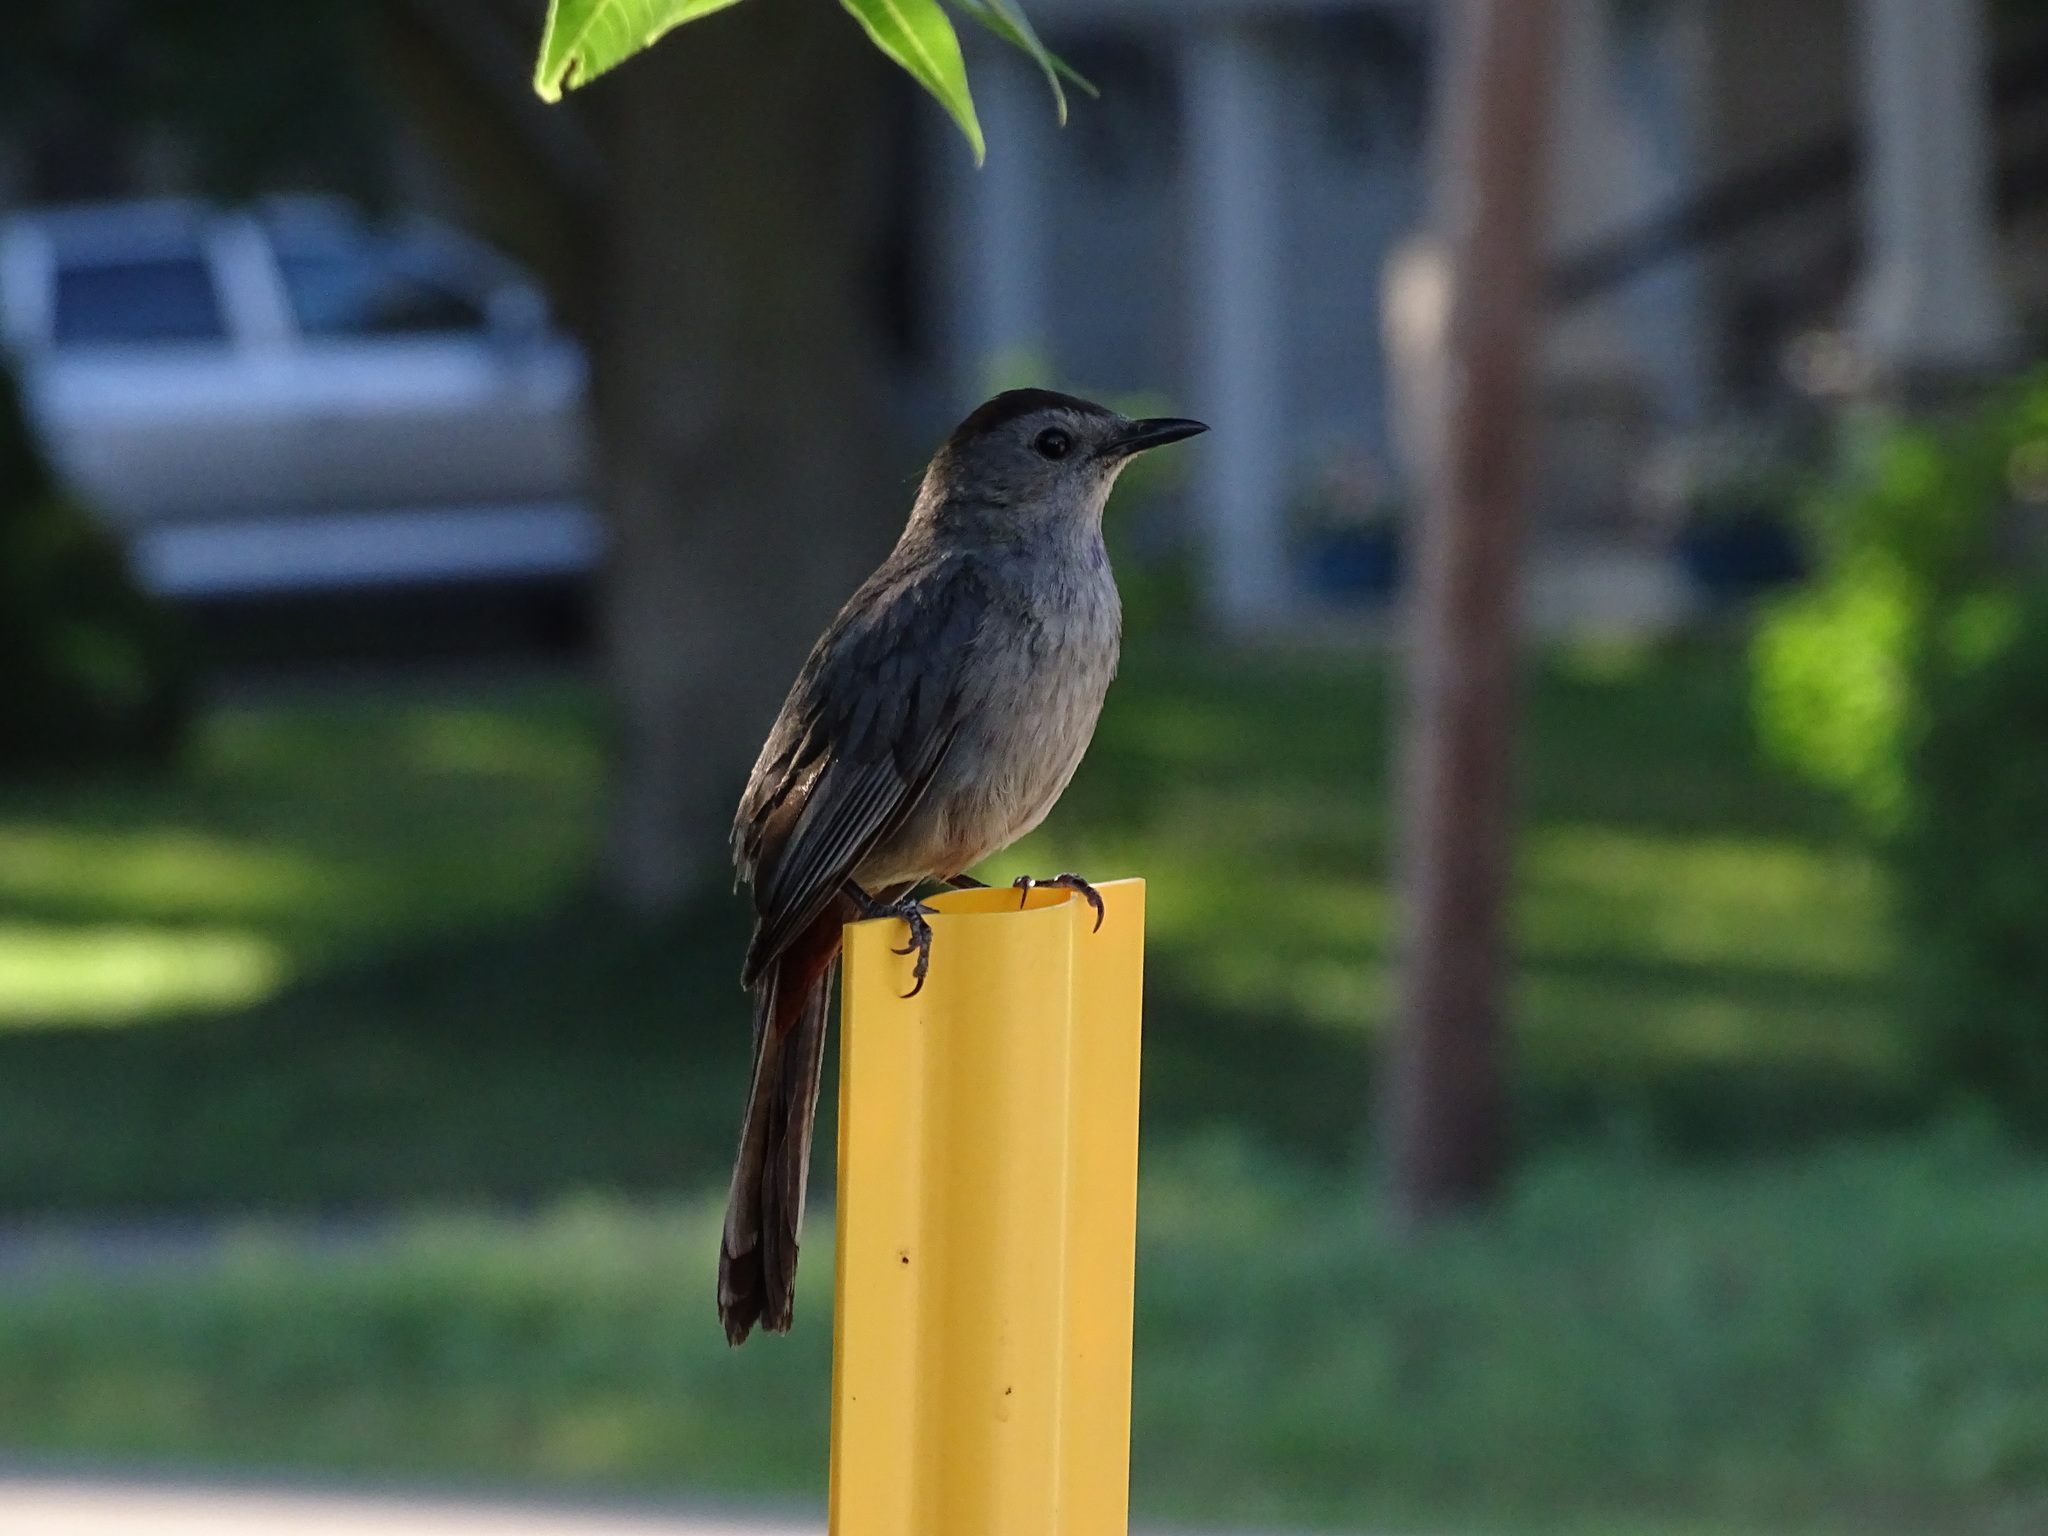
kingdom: Animalia
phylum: Chordata
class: Aves
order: Passeriformes
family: Mimidae
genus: Dumetella
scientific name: Dumetella carolinensis
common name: Gray catbird
